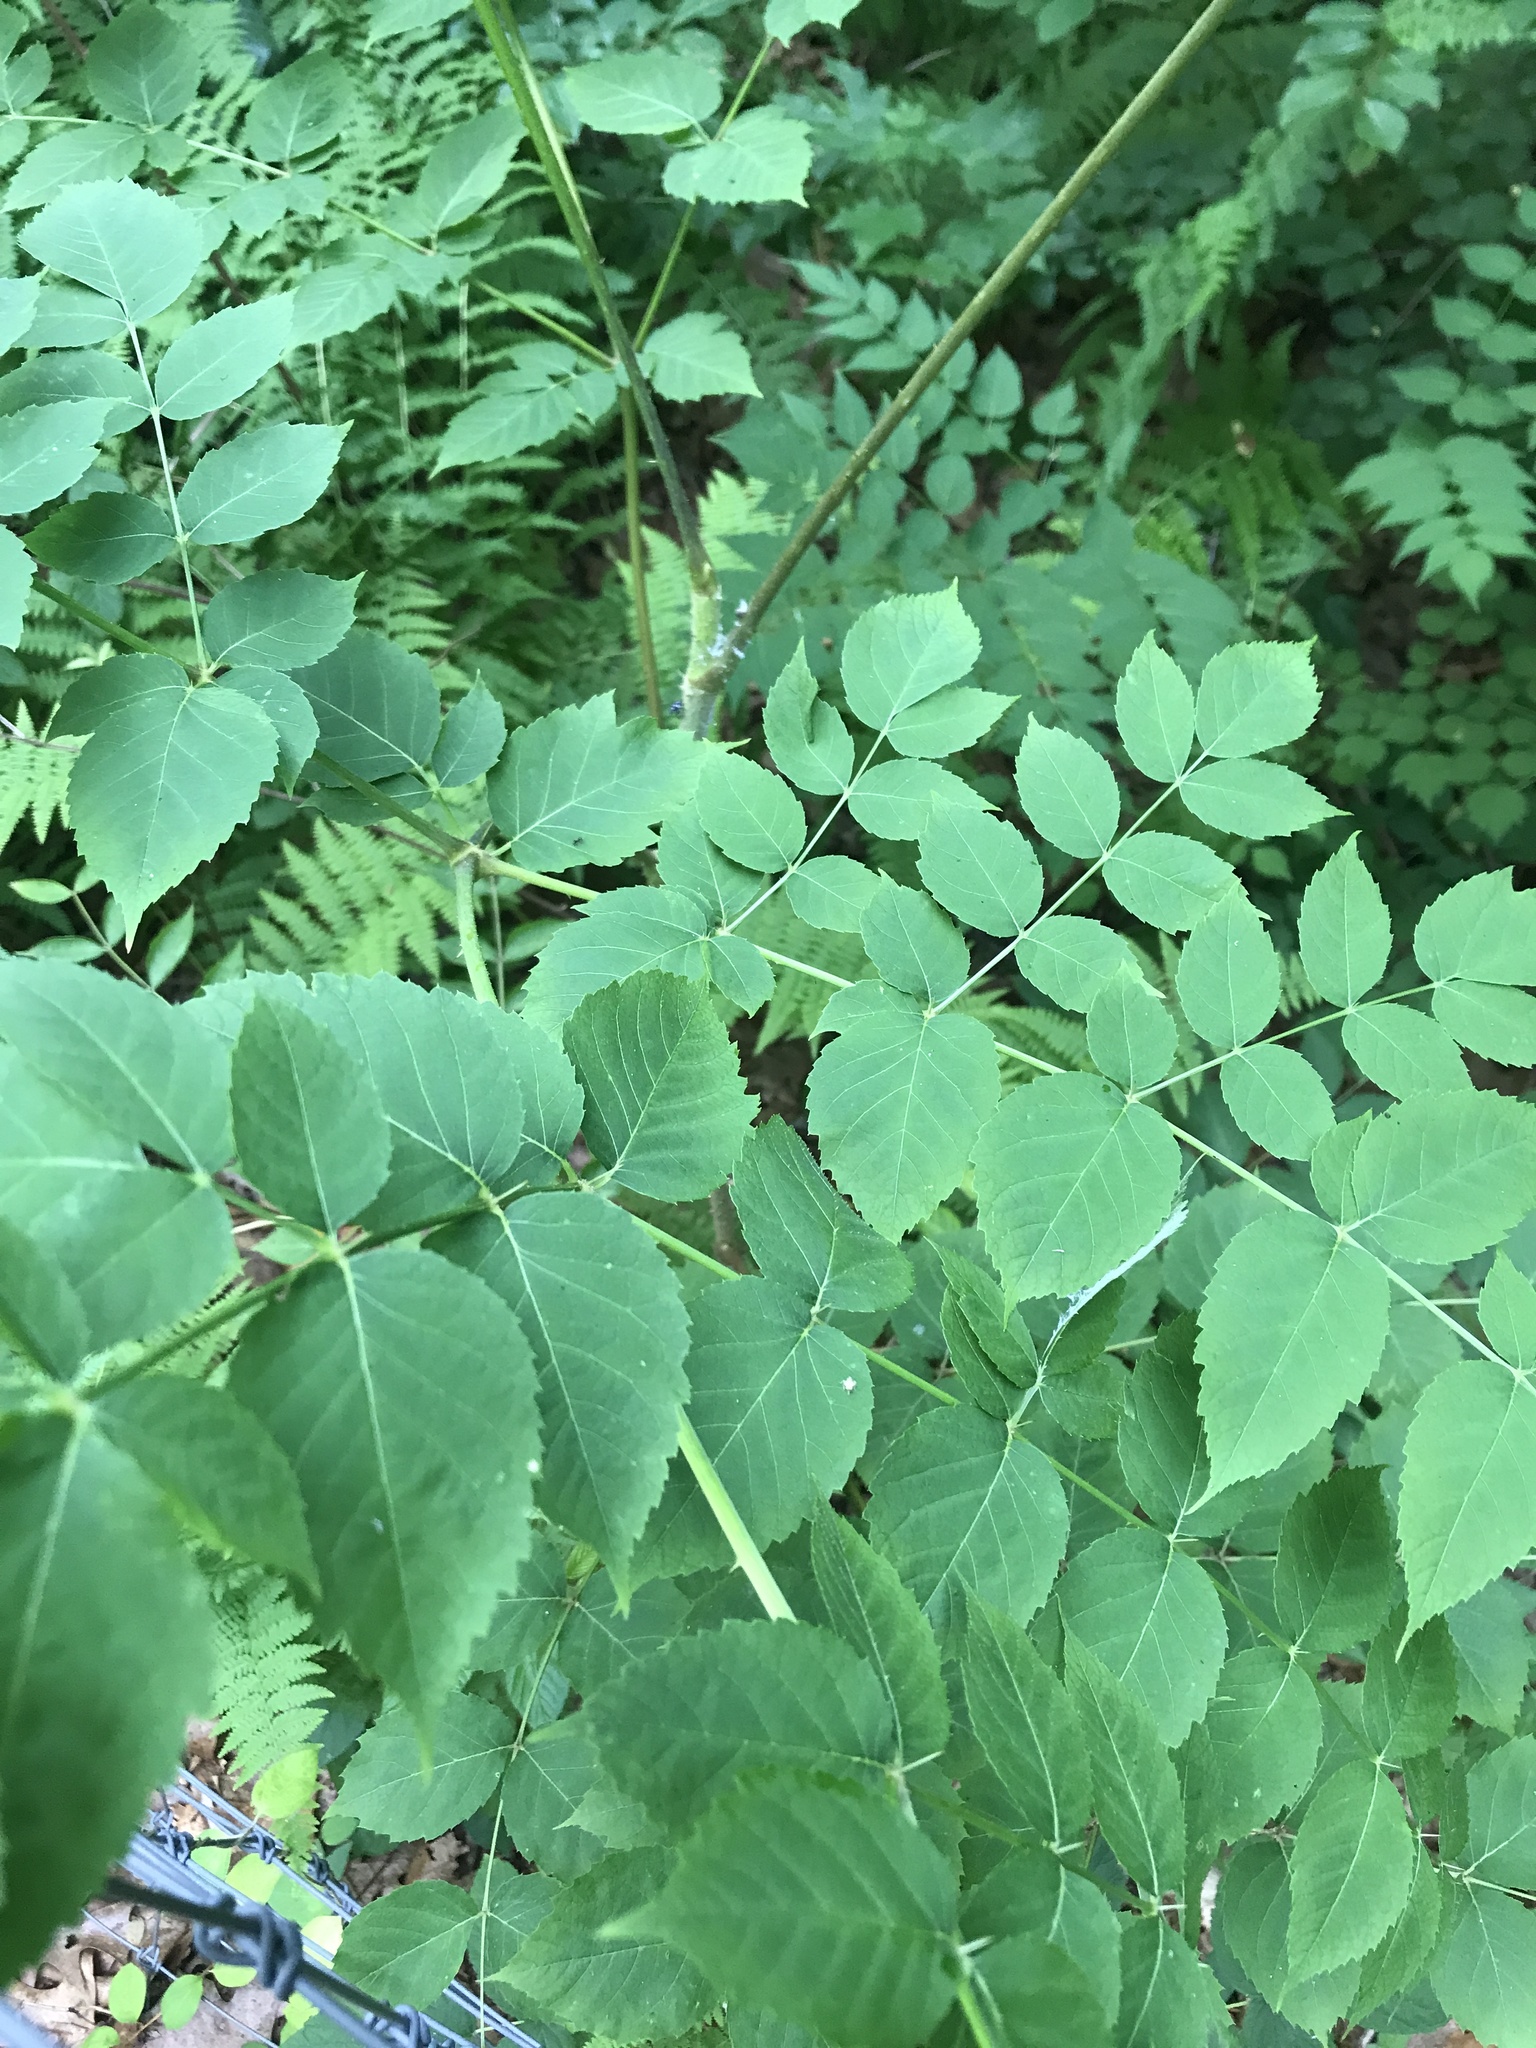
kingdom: Plantae
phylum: Tracheophyta
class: Magnoliopsida
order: Apiales
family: Araliaceae
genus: Aralia
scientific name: Aralia elata
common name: Japanese angelica-tree
